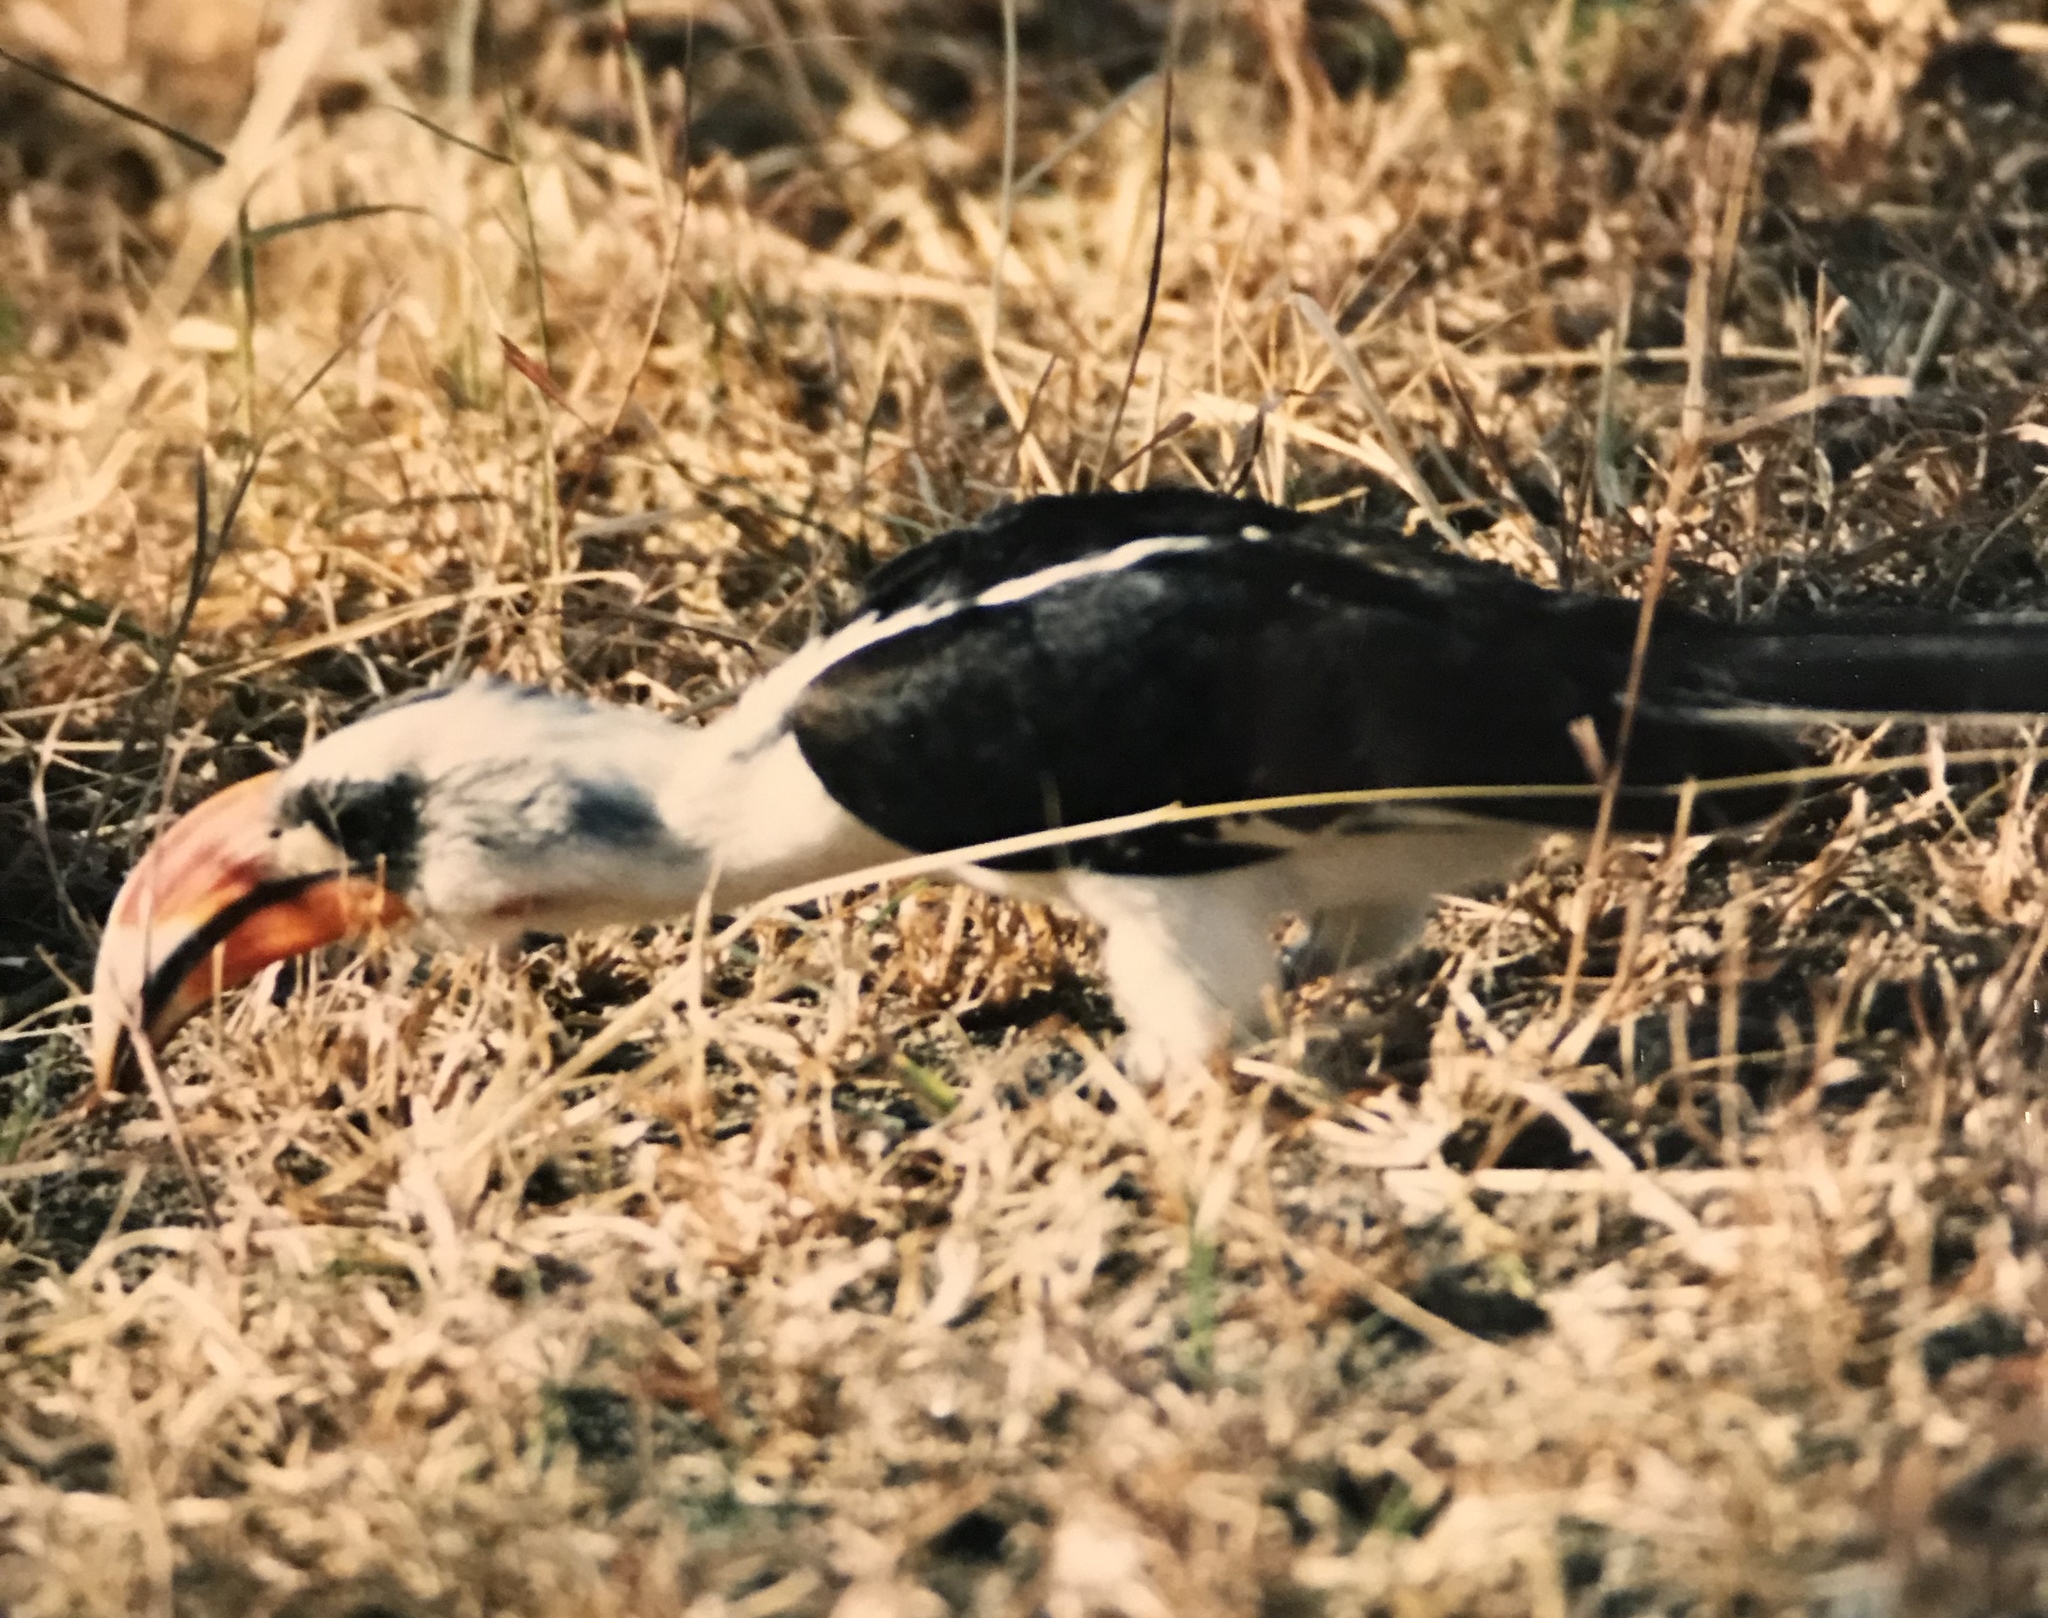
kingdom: Animalia
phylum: Chordata
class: Aves
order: Bucerotiformes
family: Bucerotidae
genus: Tockus
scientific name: Tockus deckeni
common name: Von der decken's hornbill
